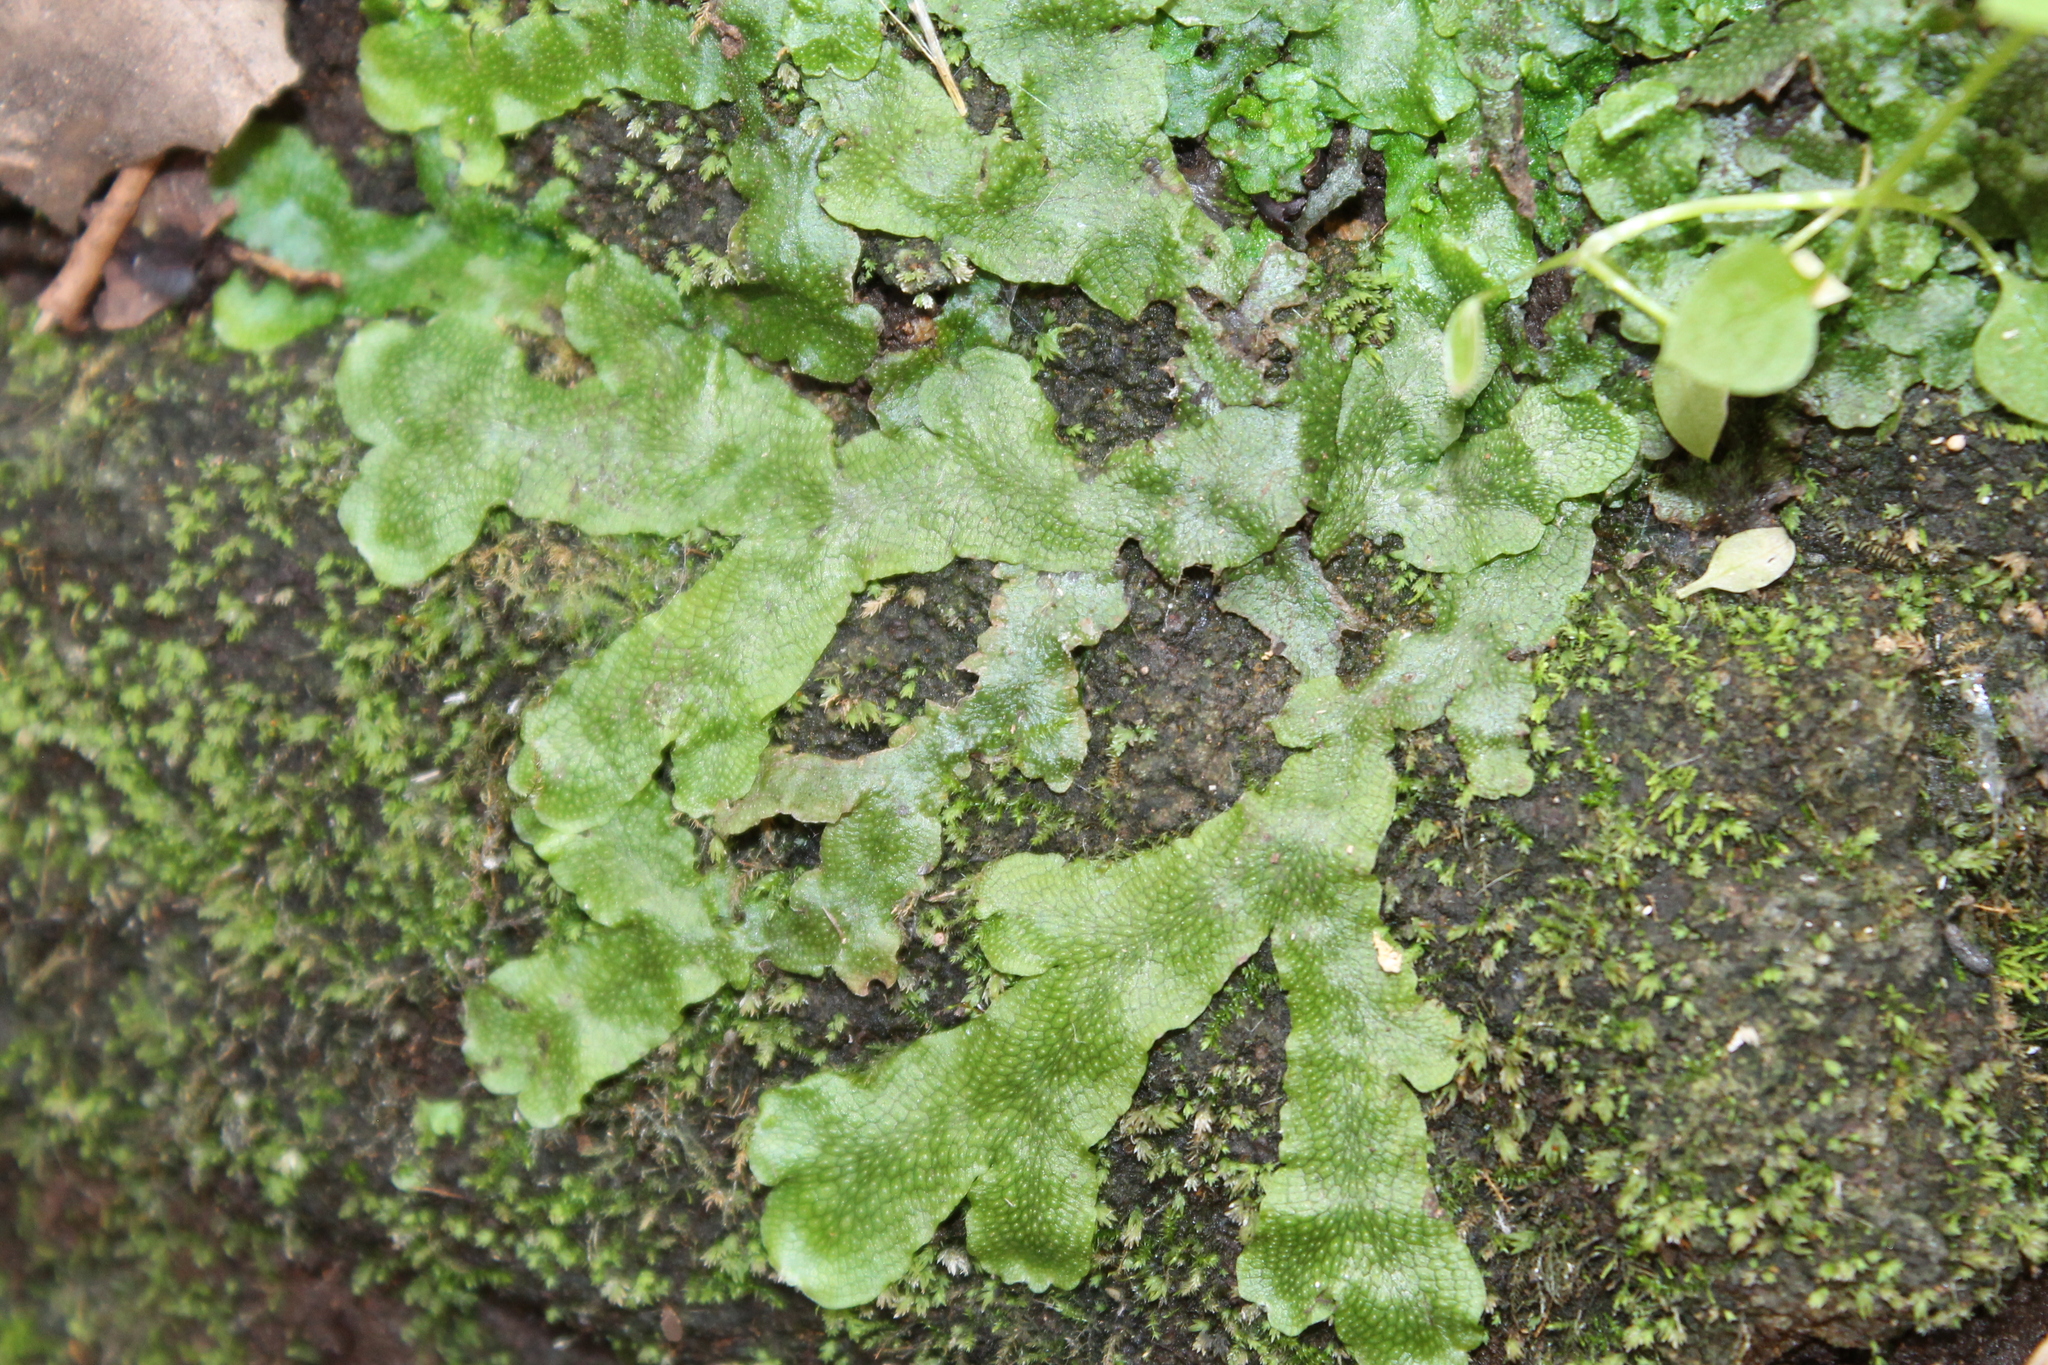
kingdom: Plantae
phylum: Marchantiophyta
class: Marchantiopsida
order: Marchantiales
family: Conocephalaceae
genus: Conocephalum
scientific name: Conocephalum salebrosum
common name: Cat-tongue liverwort
